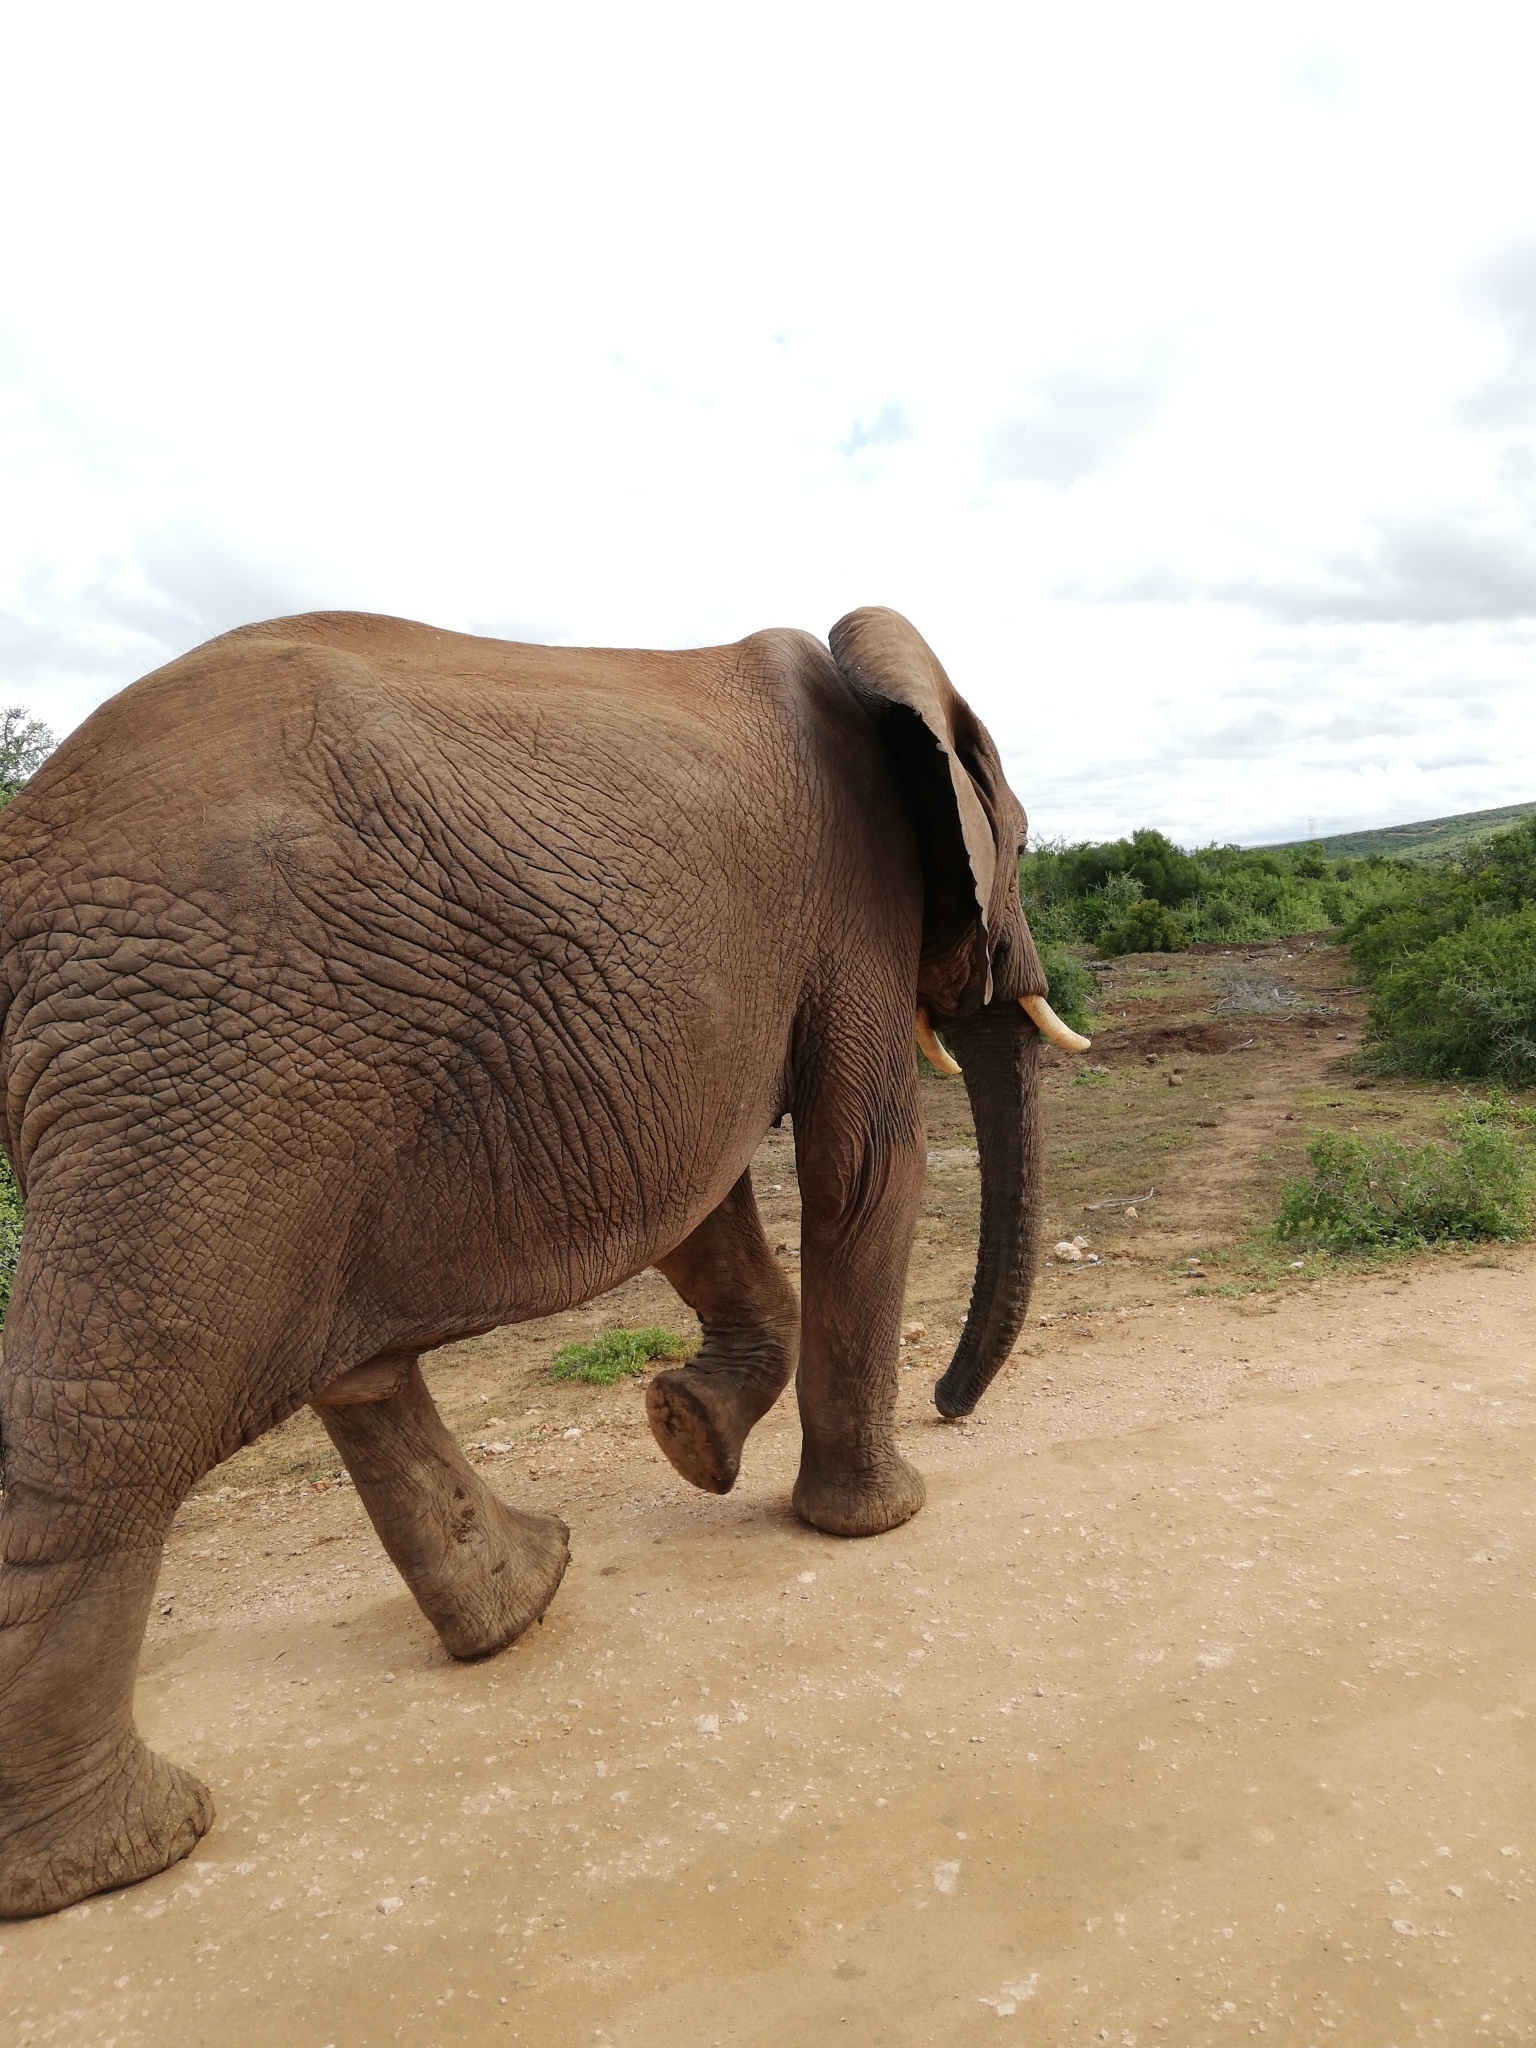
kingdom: Animalia
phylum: Chordata
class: Mammalia
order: Proboscidea
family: Elephantidae
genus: Loxodonta
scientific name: Loxodonta africana
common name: African elephant
